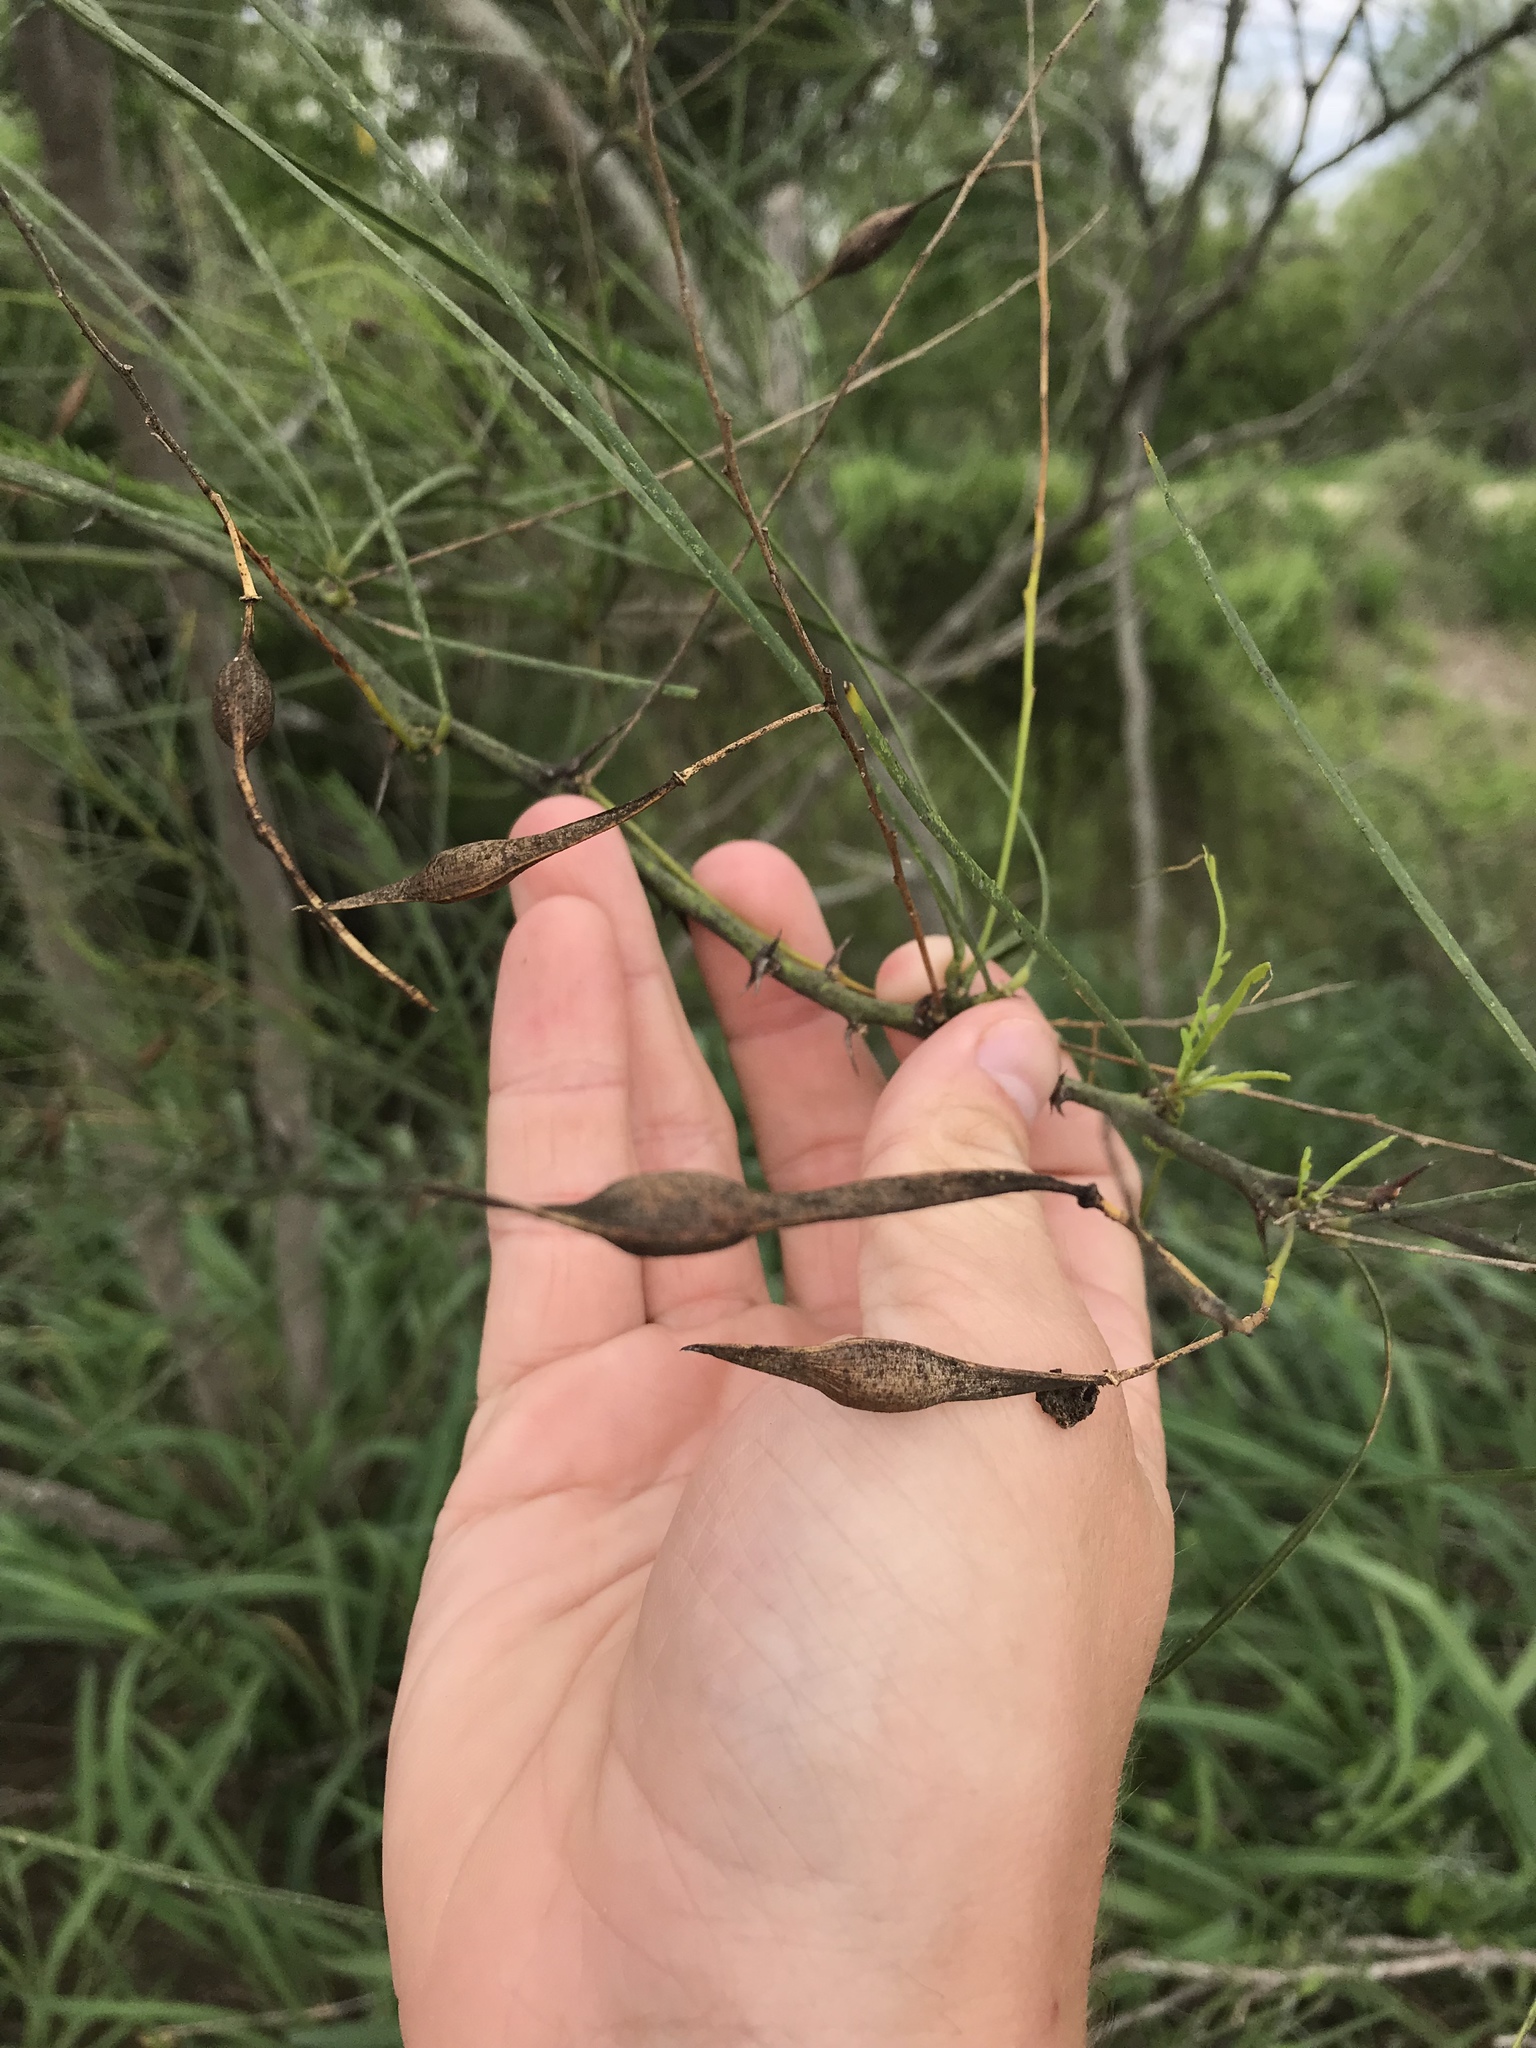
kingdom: Plantae
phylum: Tracheophyta
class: Magnoliopsida
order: Fabales
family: Fabaceae
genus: Parkinsonia
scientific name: Parkinsonia aculeata
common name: Jerusalem thorn
